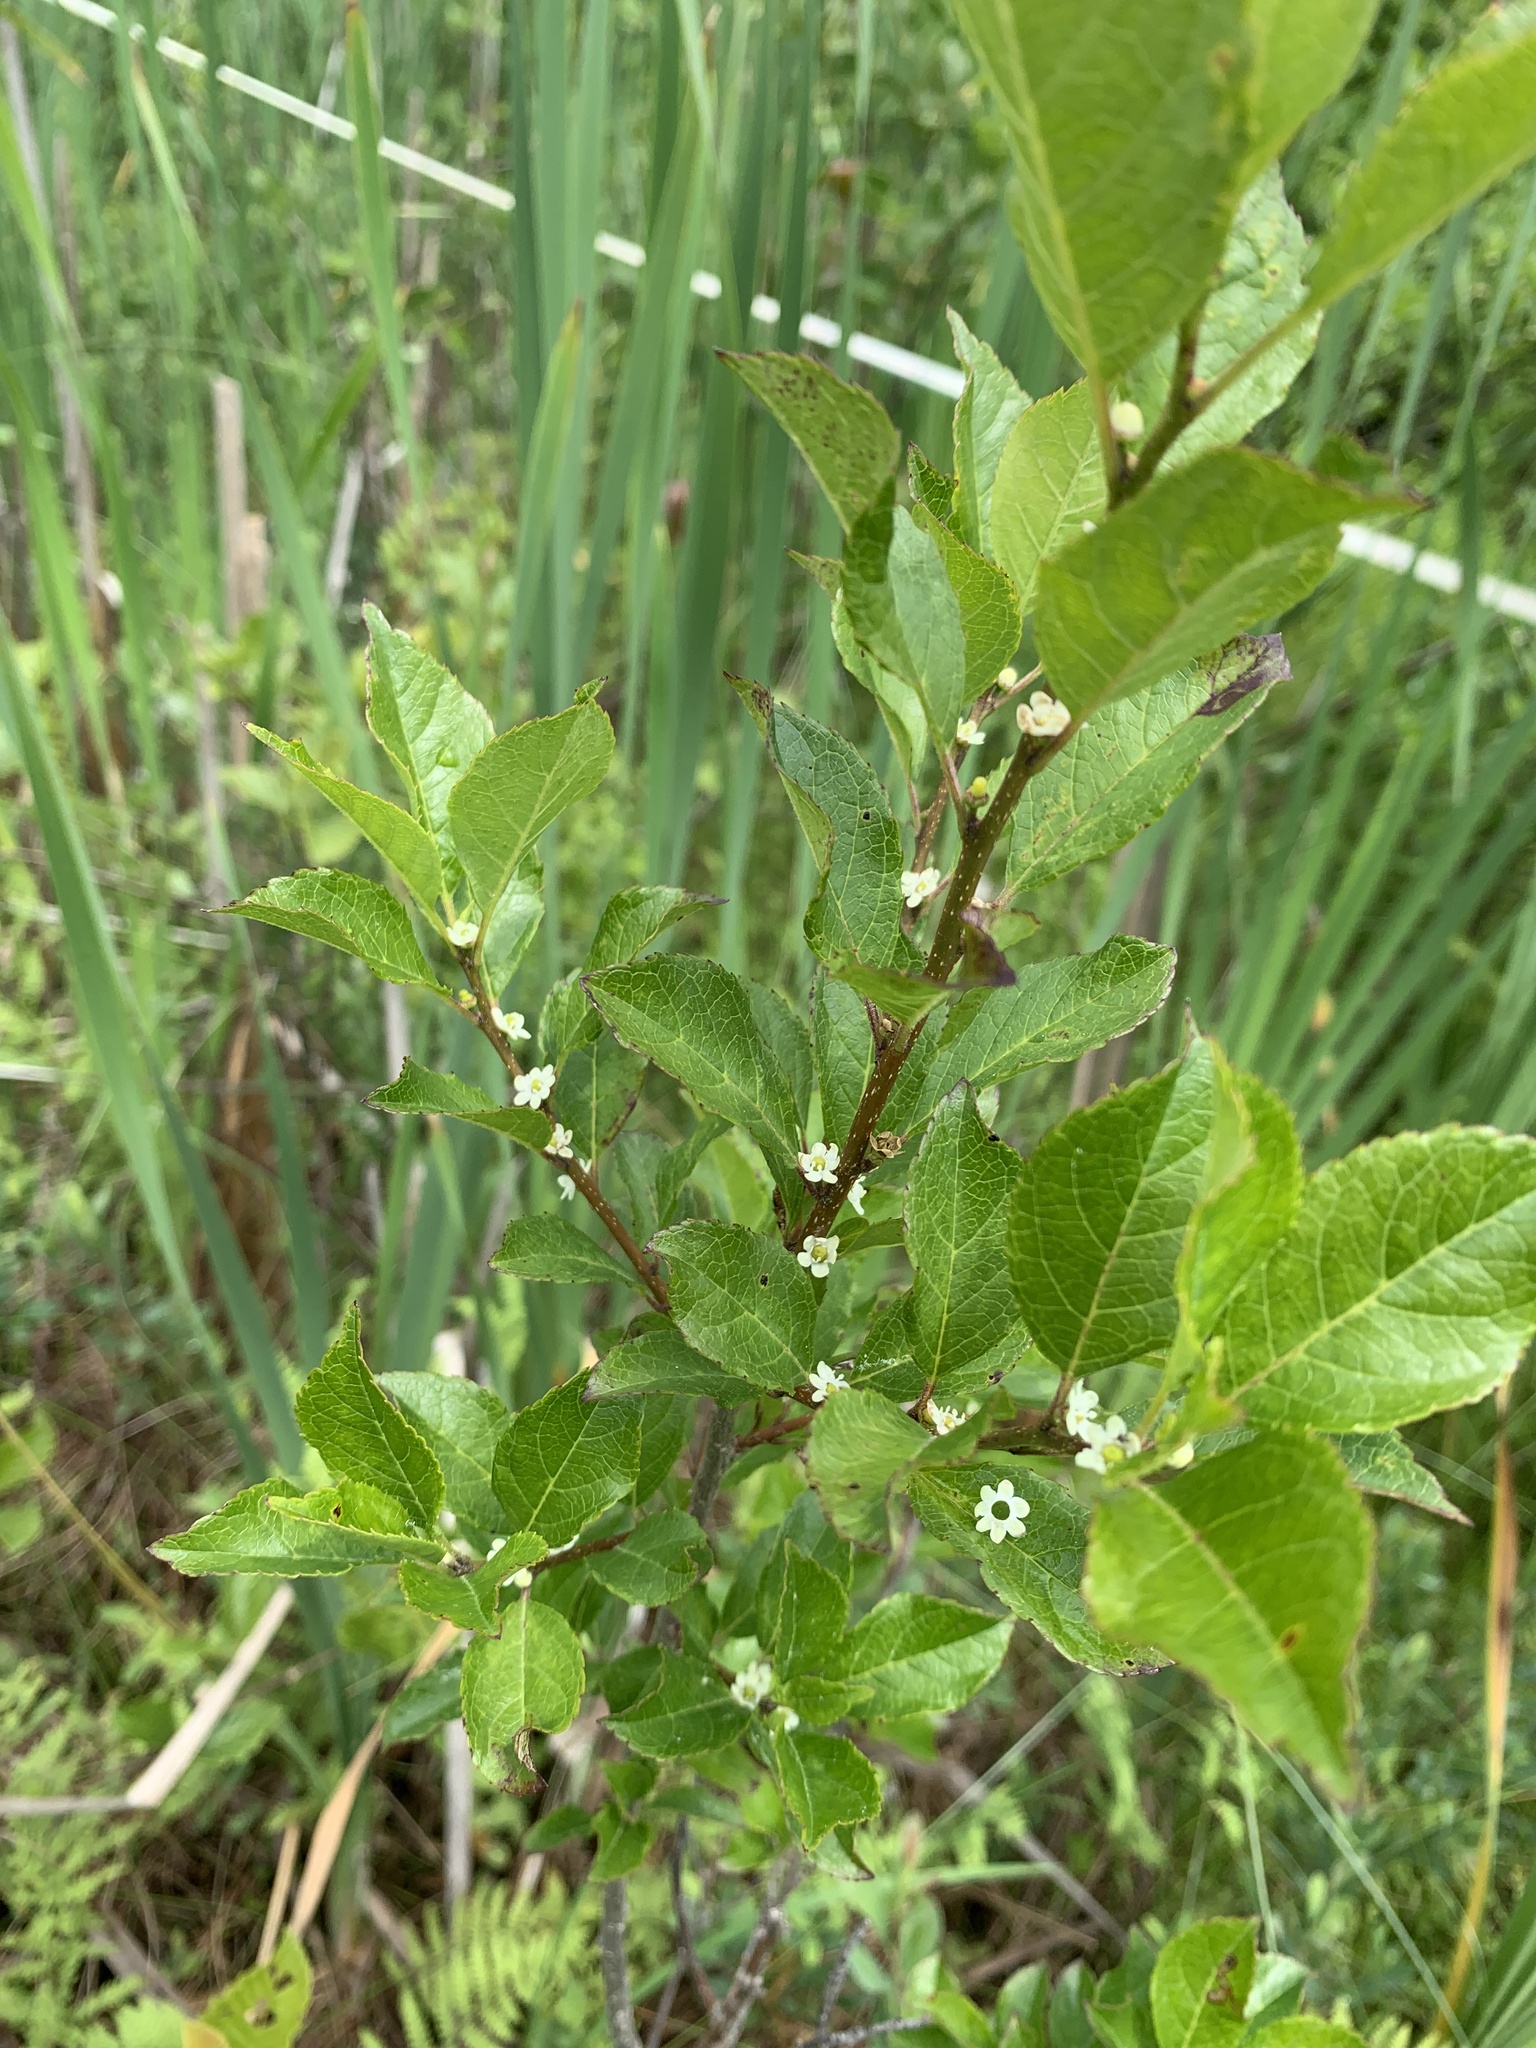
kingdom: Plantae
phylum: Tracheophyta
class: Magnoliopsida
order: Aquifoliales
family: Aquifoliaceae
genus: Ilex
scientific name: Ilex verticillata
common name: Virginia winterberry
